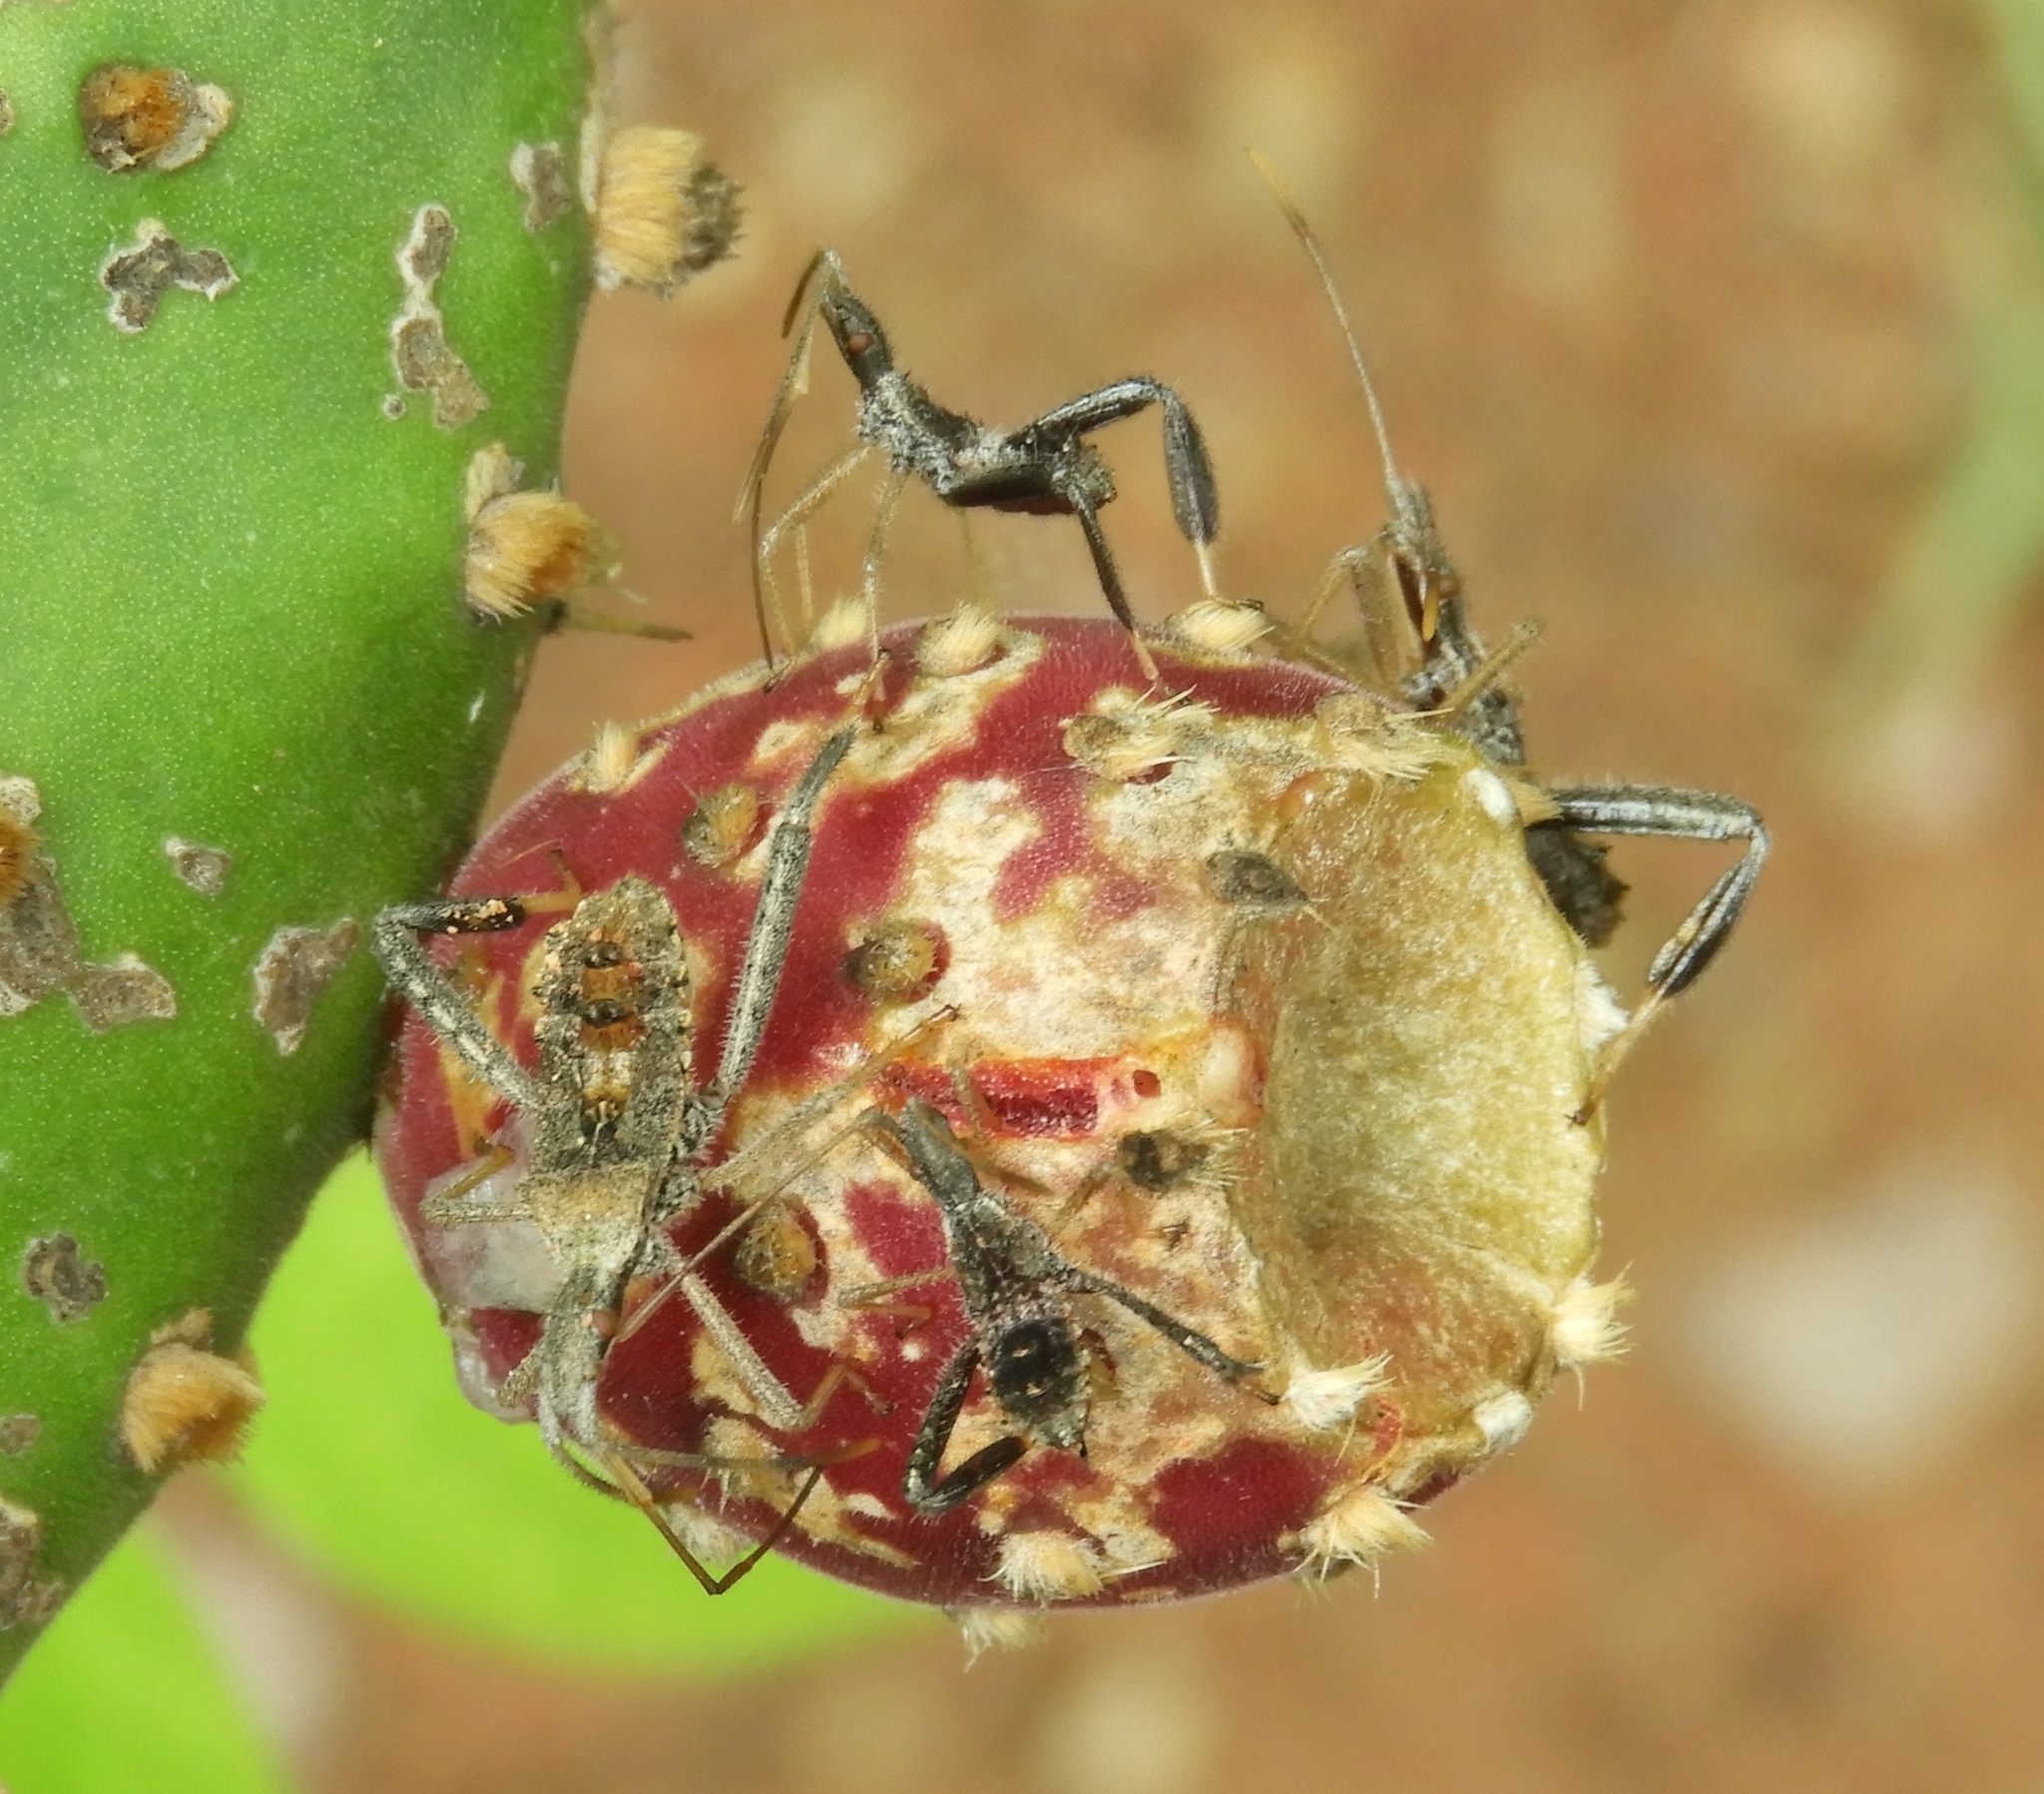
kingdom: Animalia
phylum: Arthropoda
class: Insecta
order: Hemiptera
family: Coreidae
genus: Narnia
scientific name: Narnia
